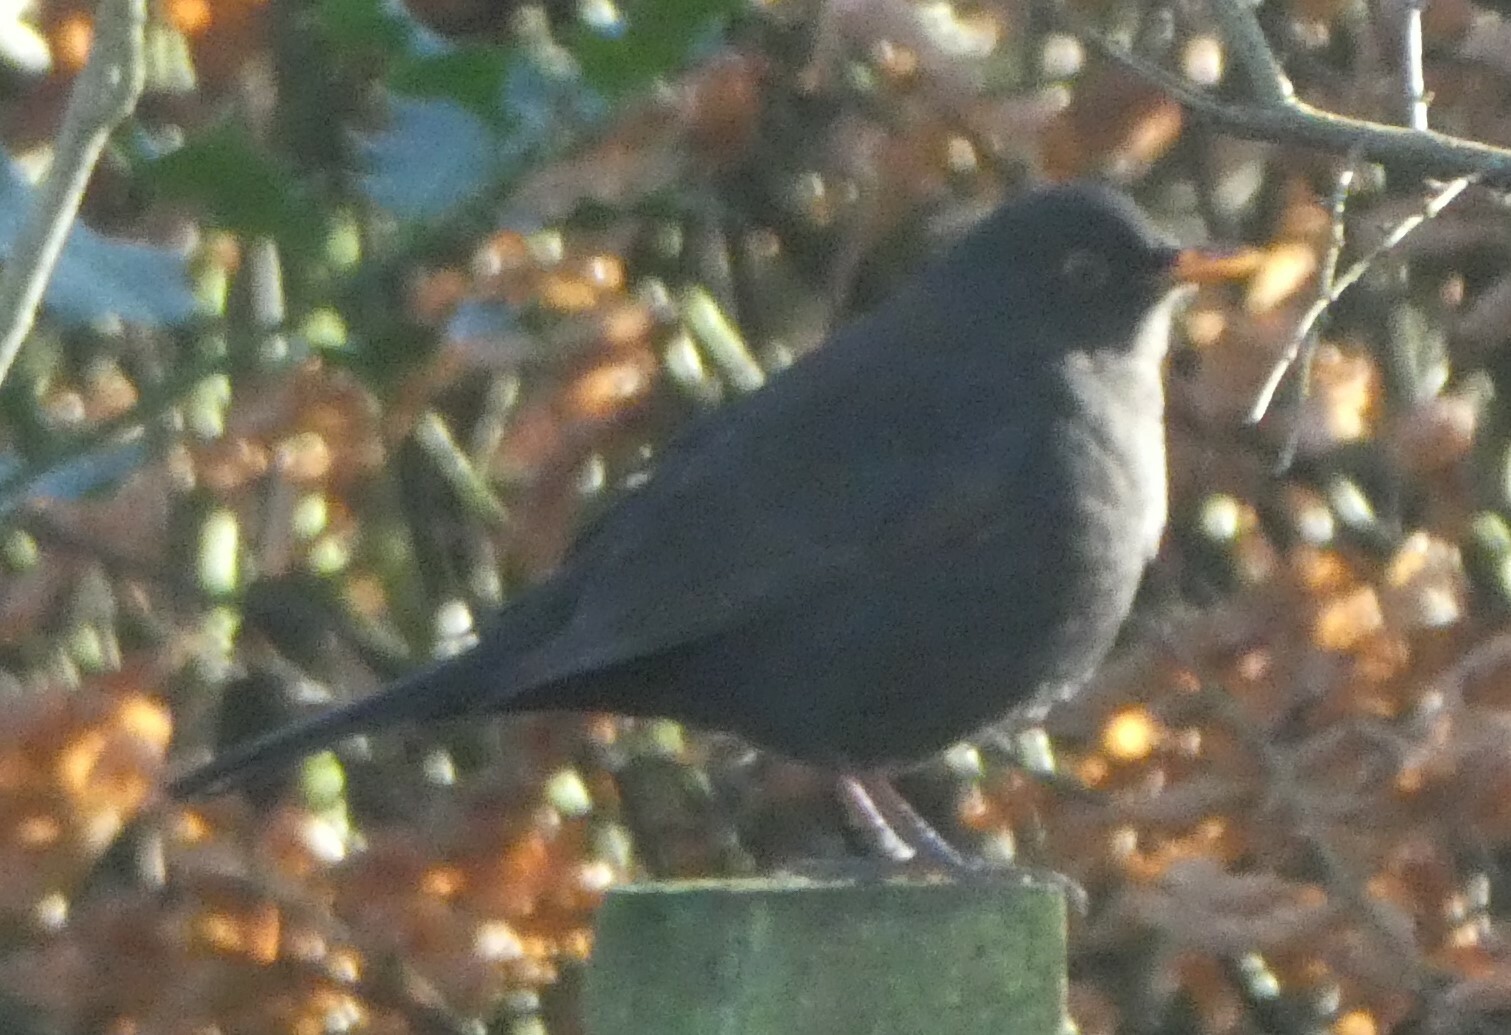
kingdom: Animalia
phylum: Chordata
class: Aves
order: Passeriformes
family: Turdidae
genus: Turdus
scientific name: Turdus merula
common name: Common blackbird
